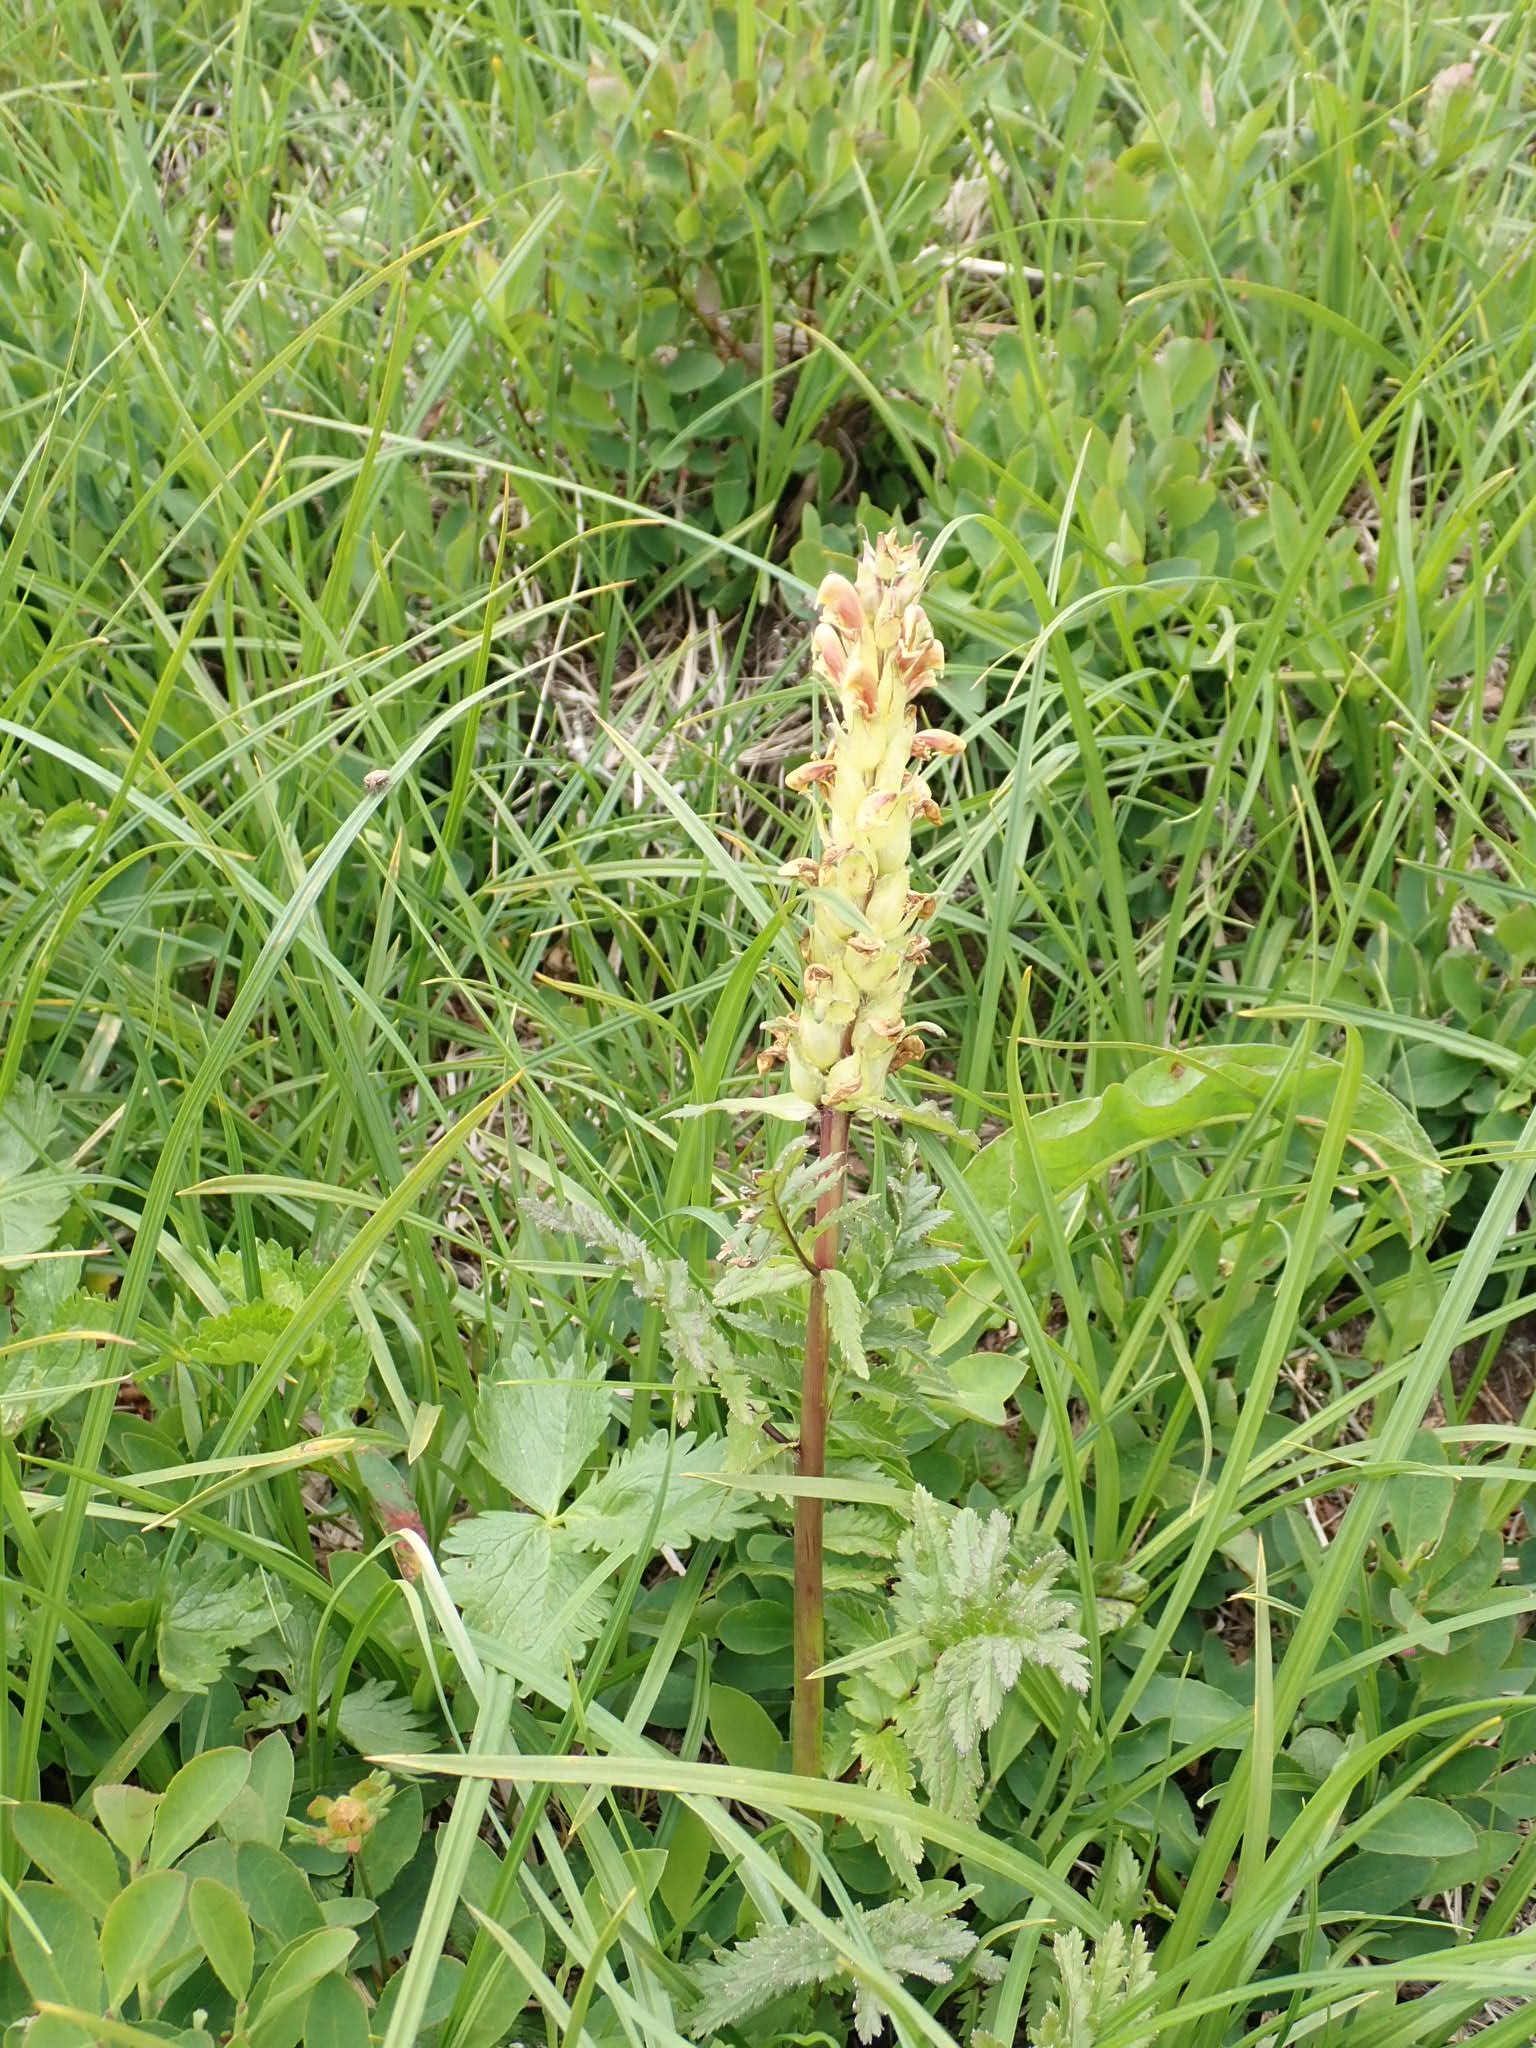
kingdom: Plantae
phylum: Tracheophyta
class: Magnoliopsida
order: Lamiales
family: Orobanchaceae
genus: Pedicularis
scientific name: Pedicularis bracteosa
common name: Bracted lousewort
